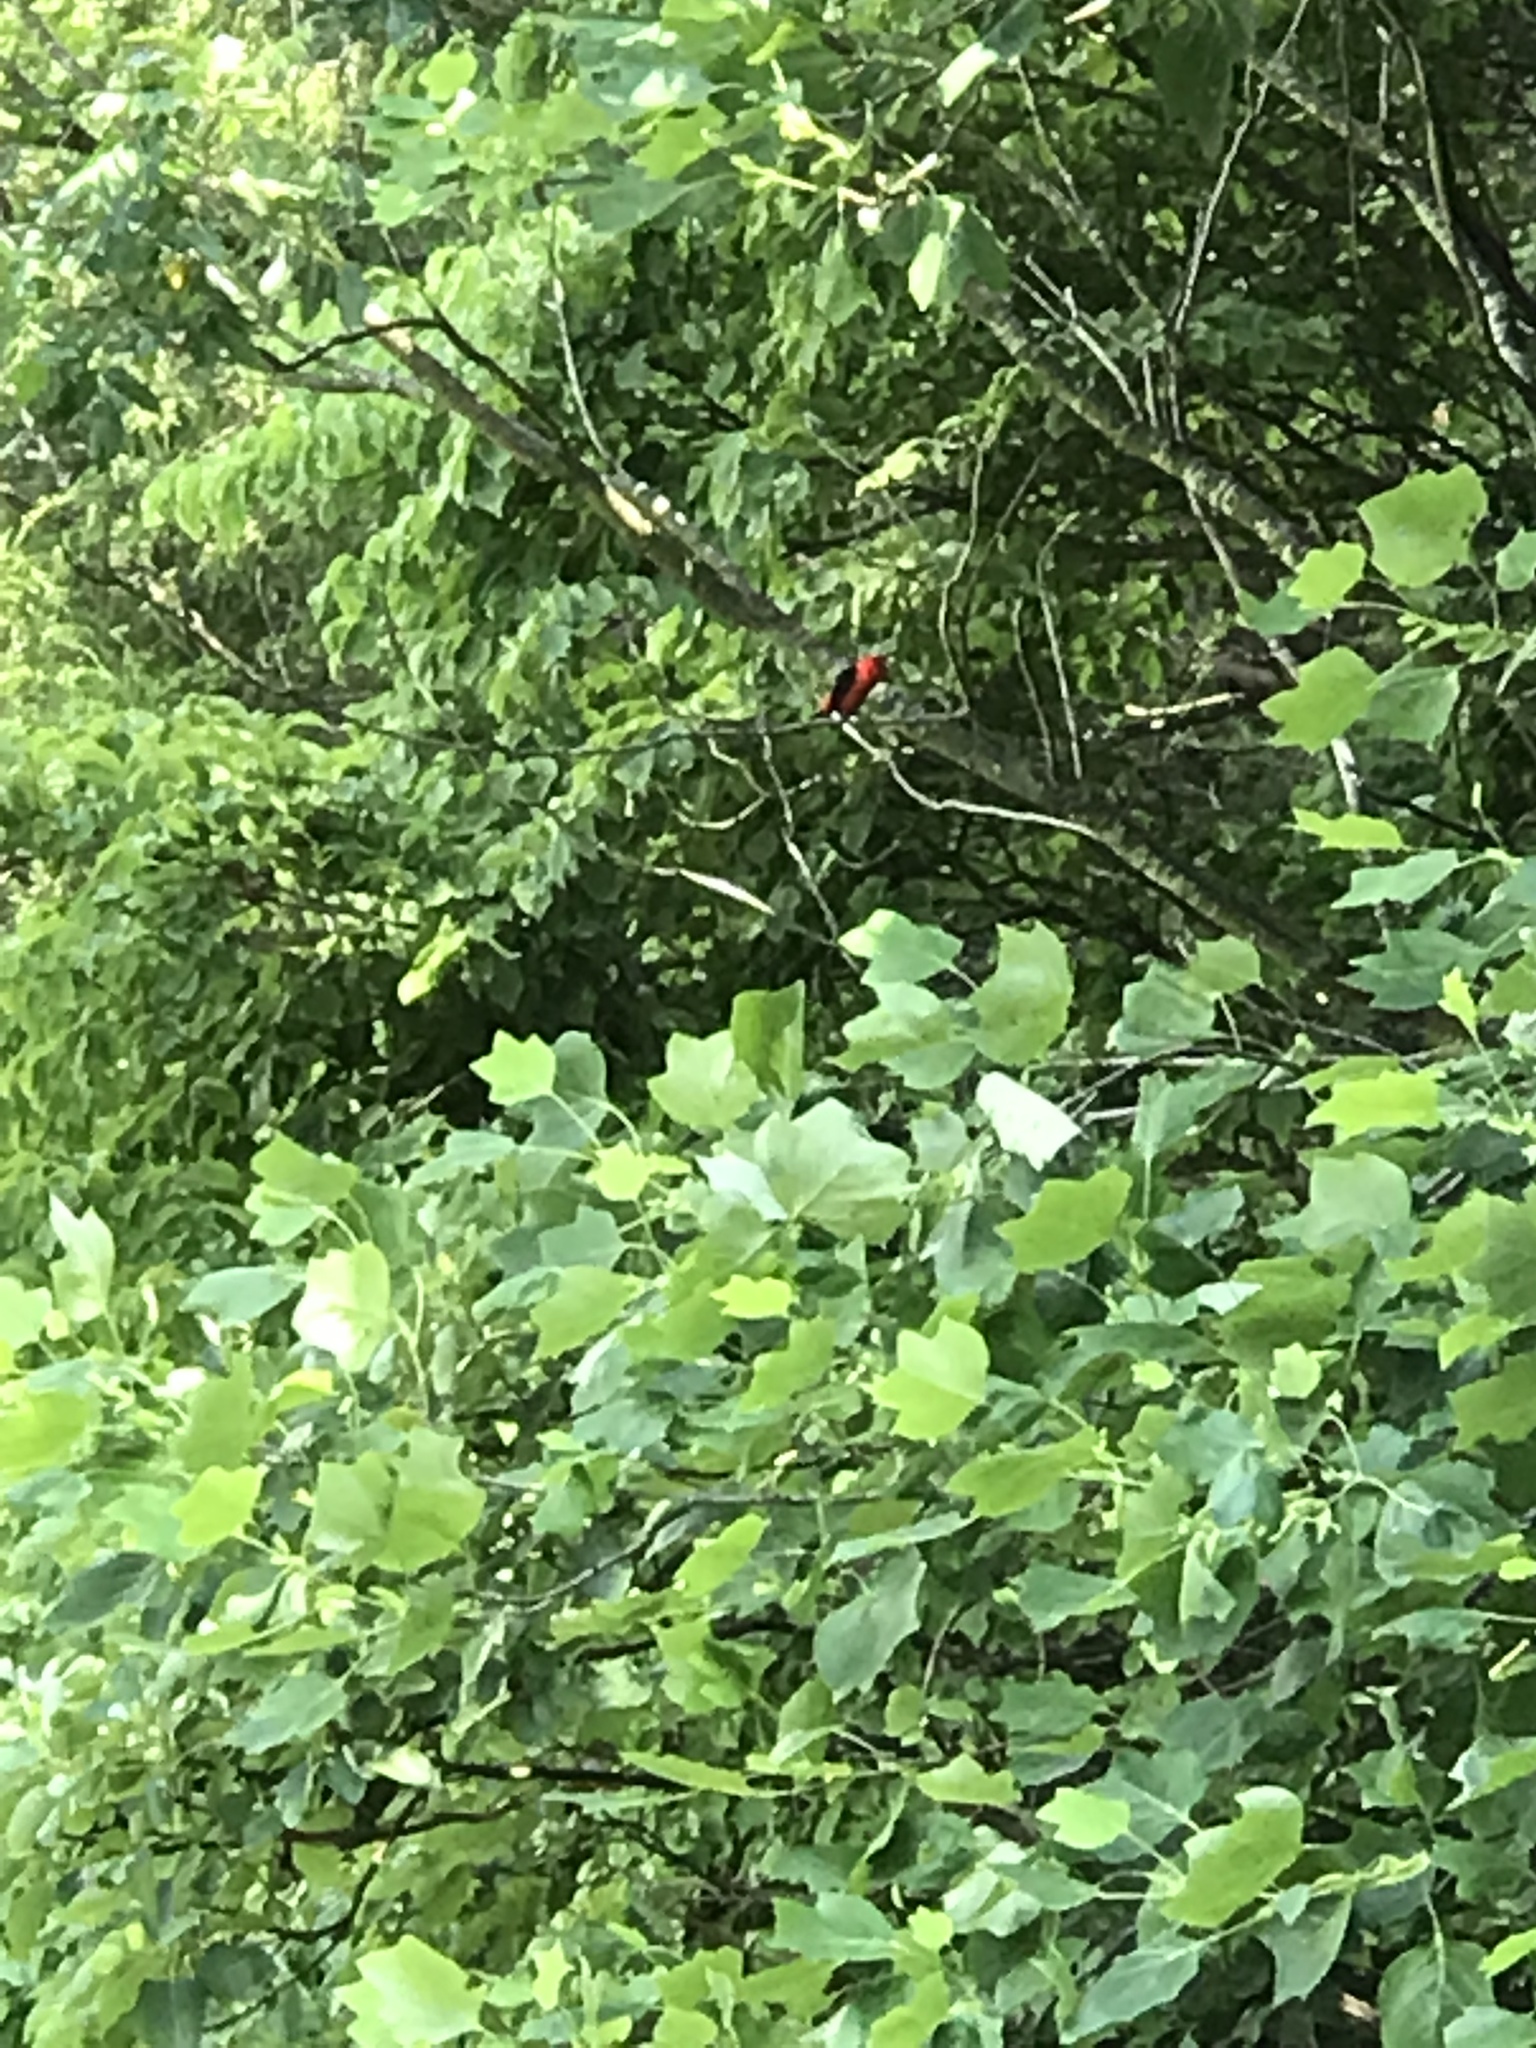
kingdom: Animalia
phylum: Chordata
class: Aves
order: Passeriformes
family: Cardinalidae
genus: Piranga
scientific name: Piranga olivacea
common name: Scarlet tanager
